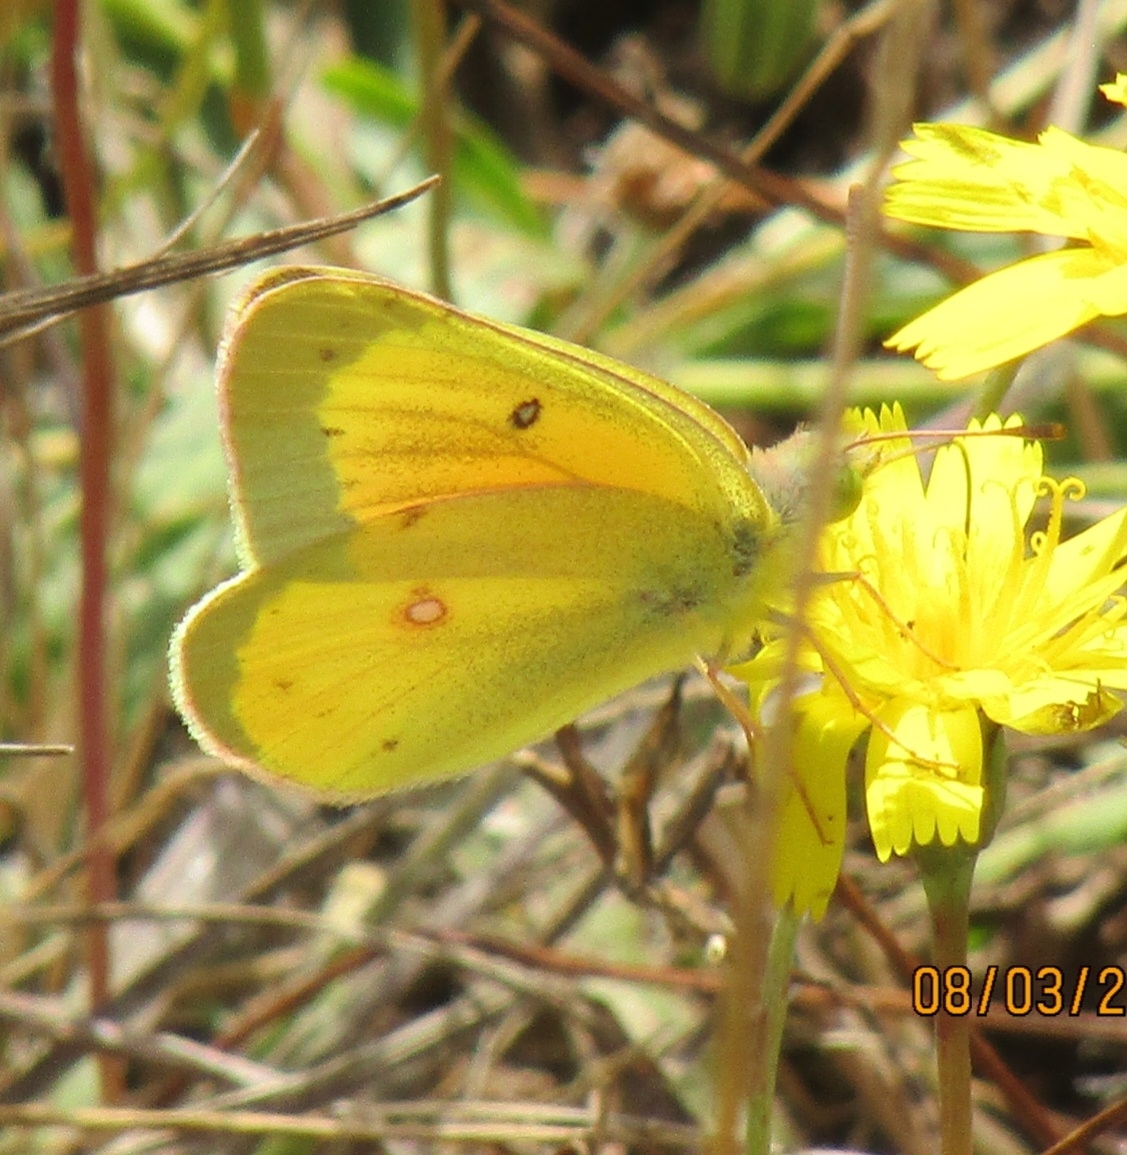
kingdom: Animalia
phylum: Arthropoda
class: Insecta
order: Lepidoptera
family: Pieridae
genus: Colias
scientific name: Colias eurytheme
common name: Alfalfa butterfly
